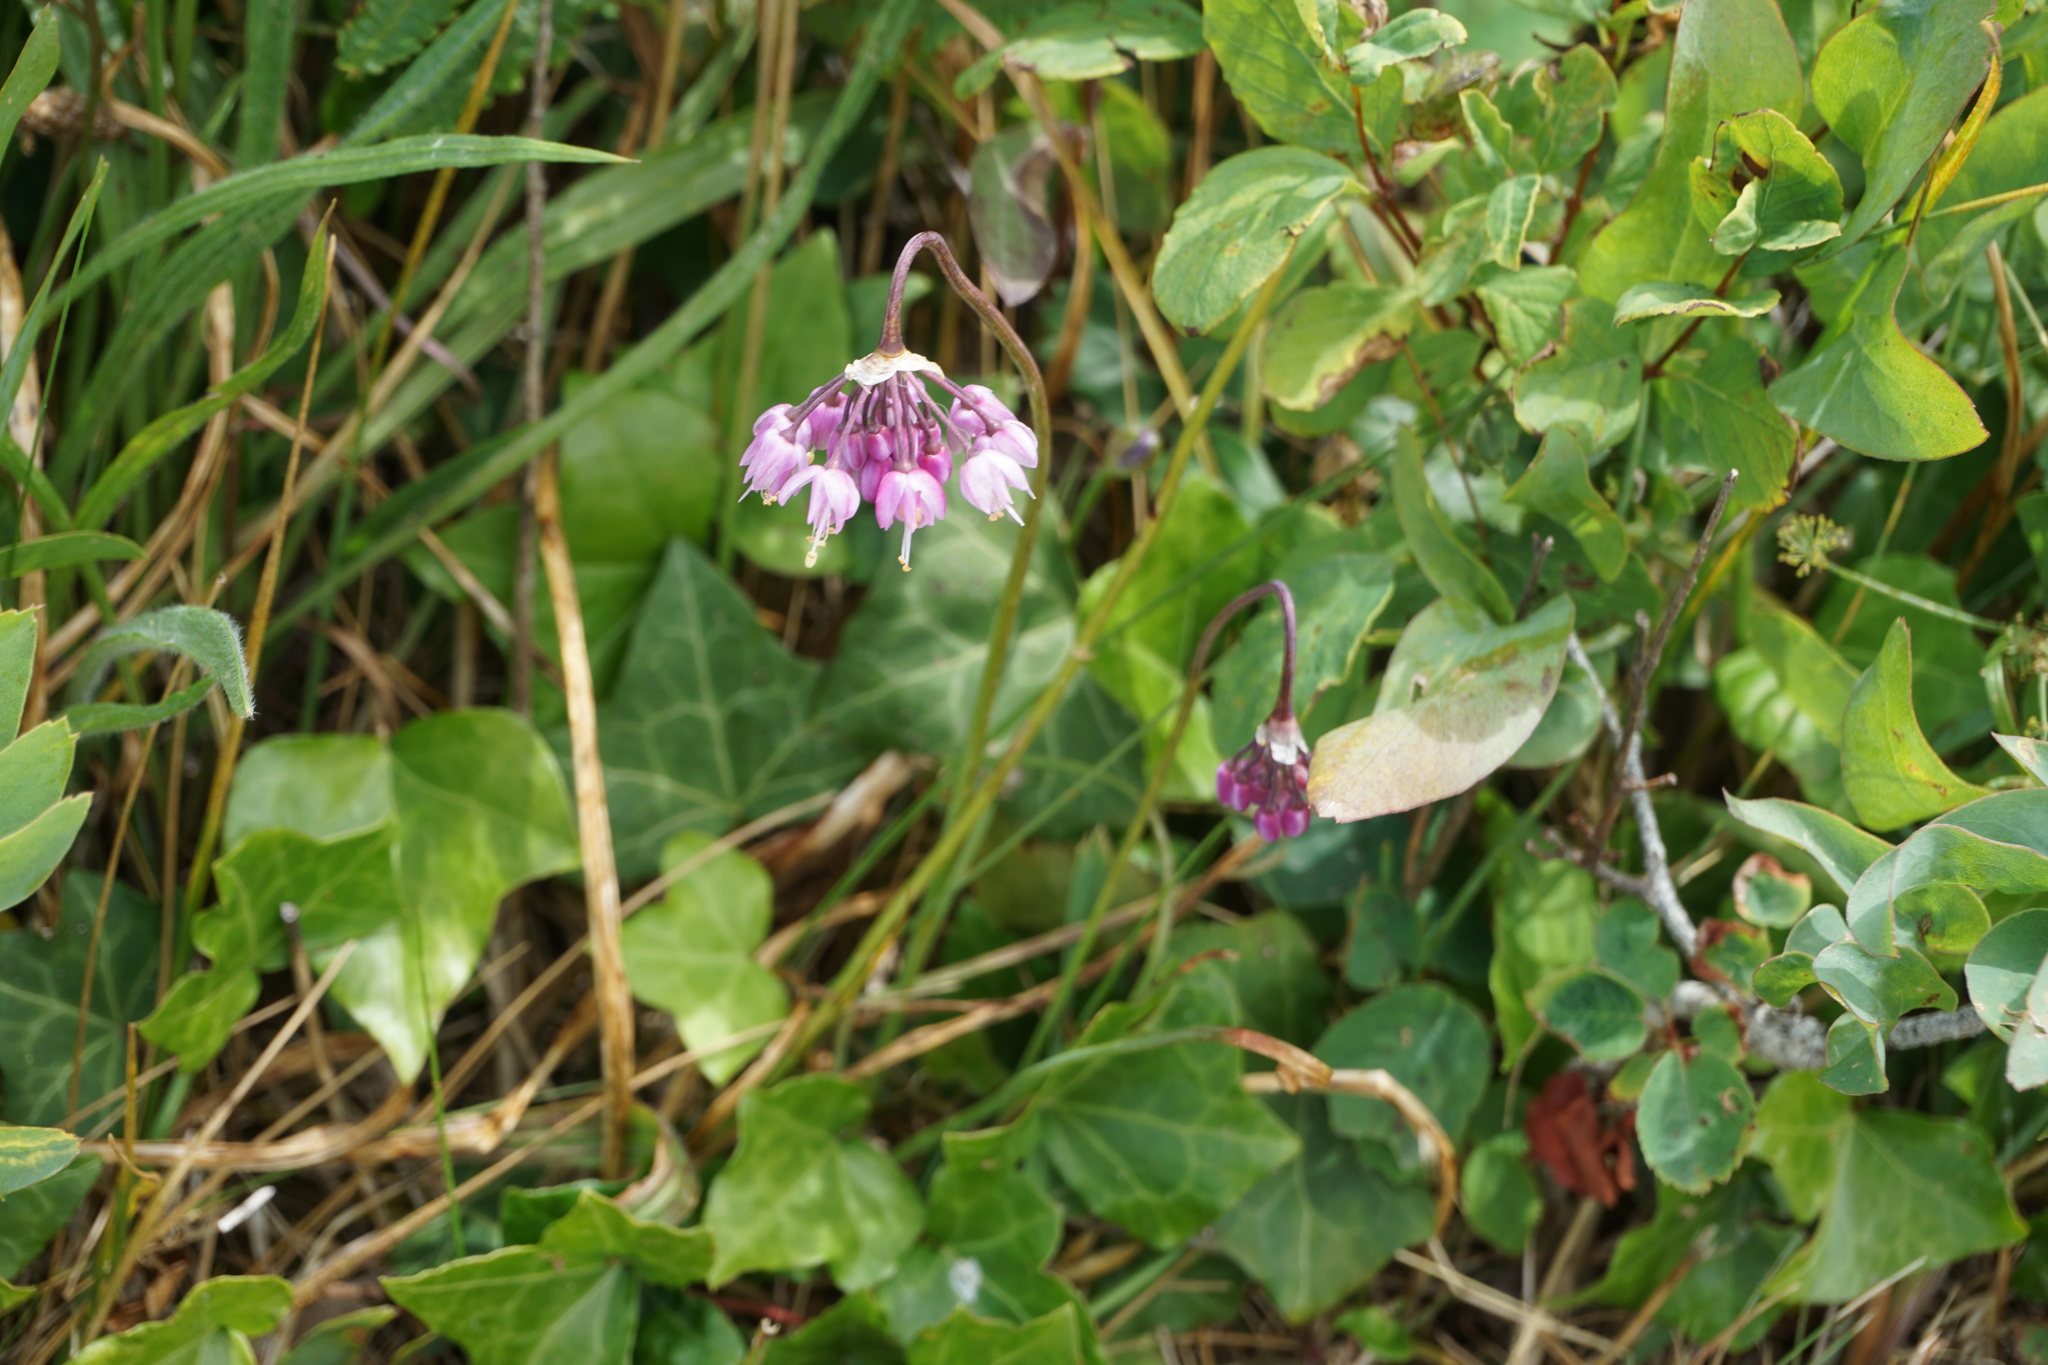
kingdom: Plantae
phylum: Tracheophyta
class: Liliopsida
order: Asparagales
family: Amaryllidaceae
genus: Allium
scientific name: Allium cernuum
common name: Nodding onion
